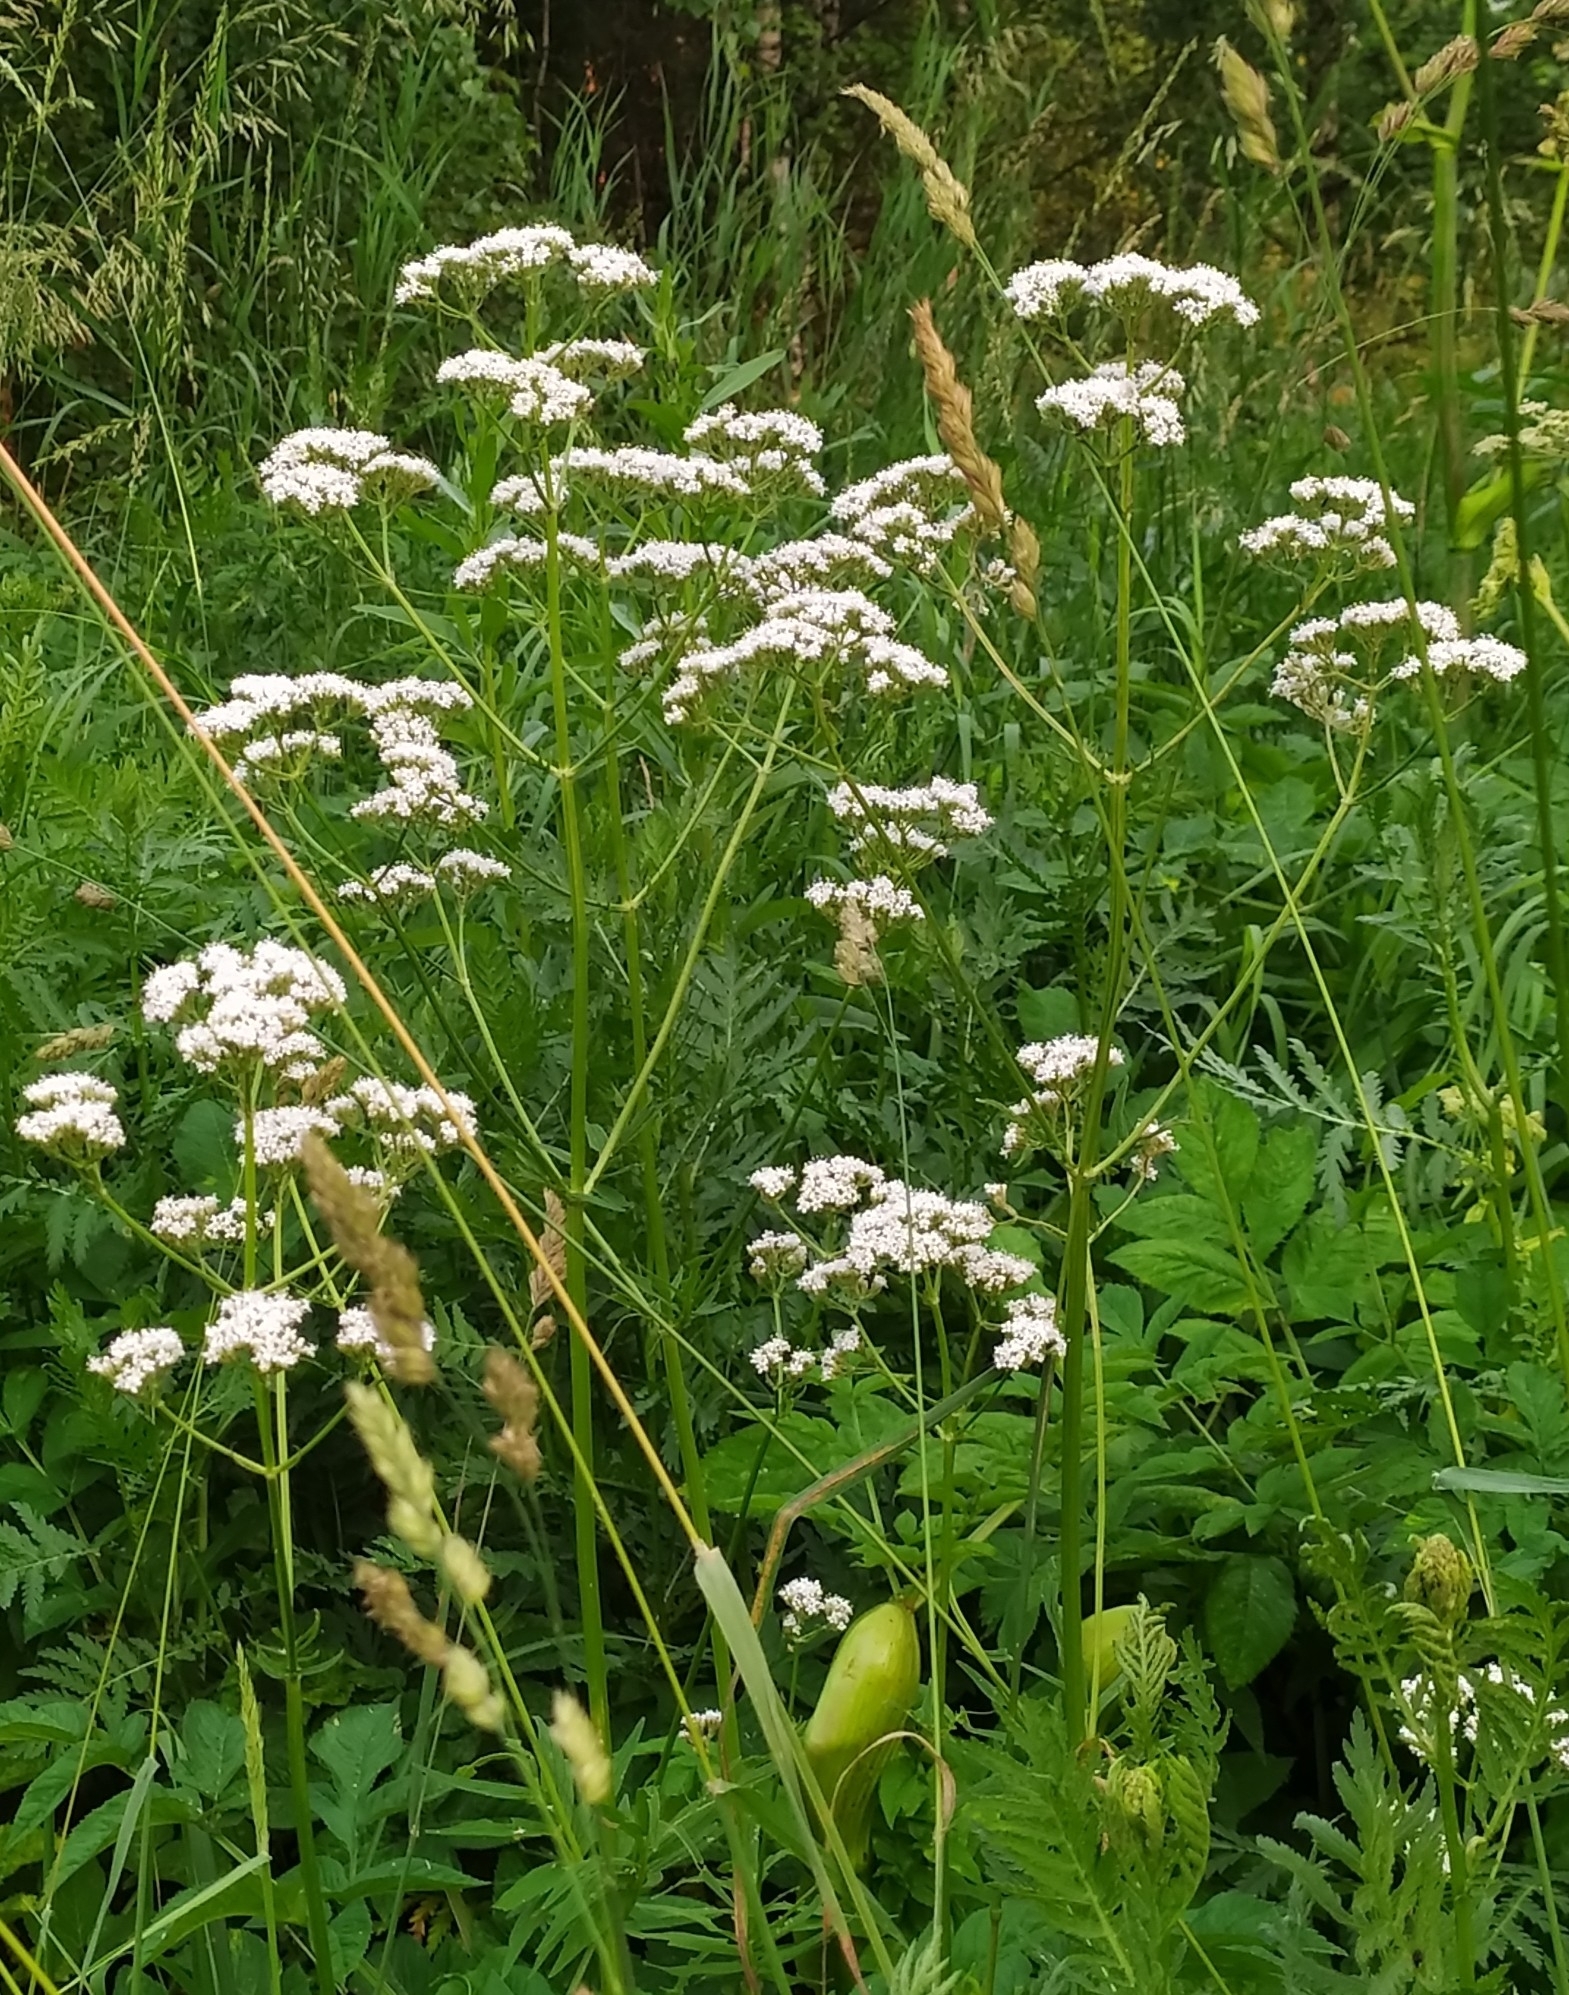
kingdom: Plantae
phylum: Tracheophyta
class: Magnoliopsida
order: Dipsacales
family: Caprifoliaceae
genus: Valeriana
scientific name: Valeriana officinalis
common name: Common valerian
